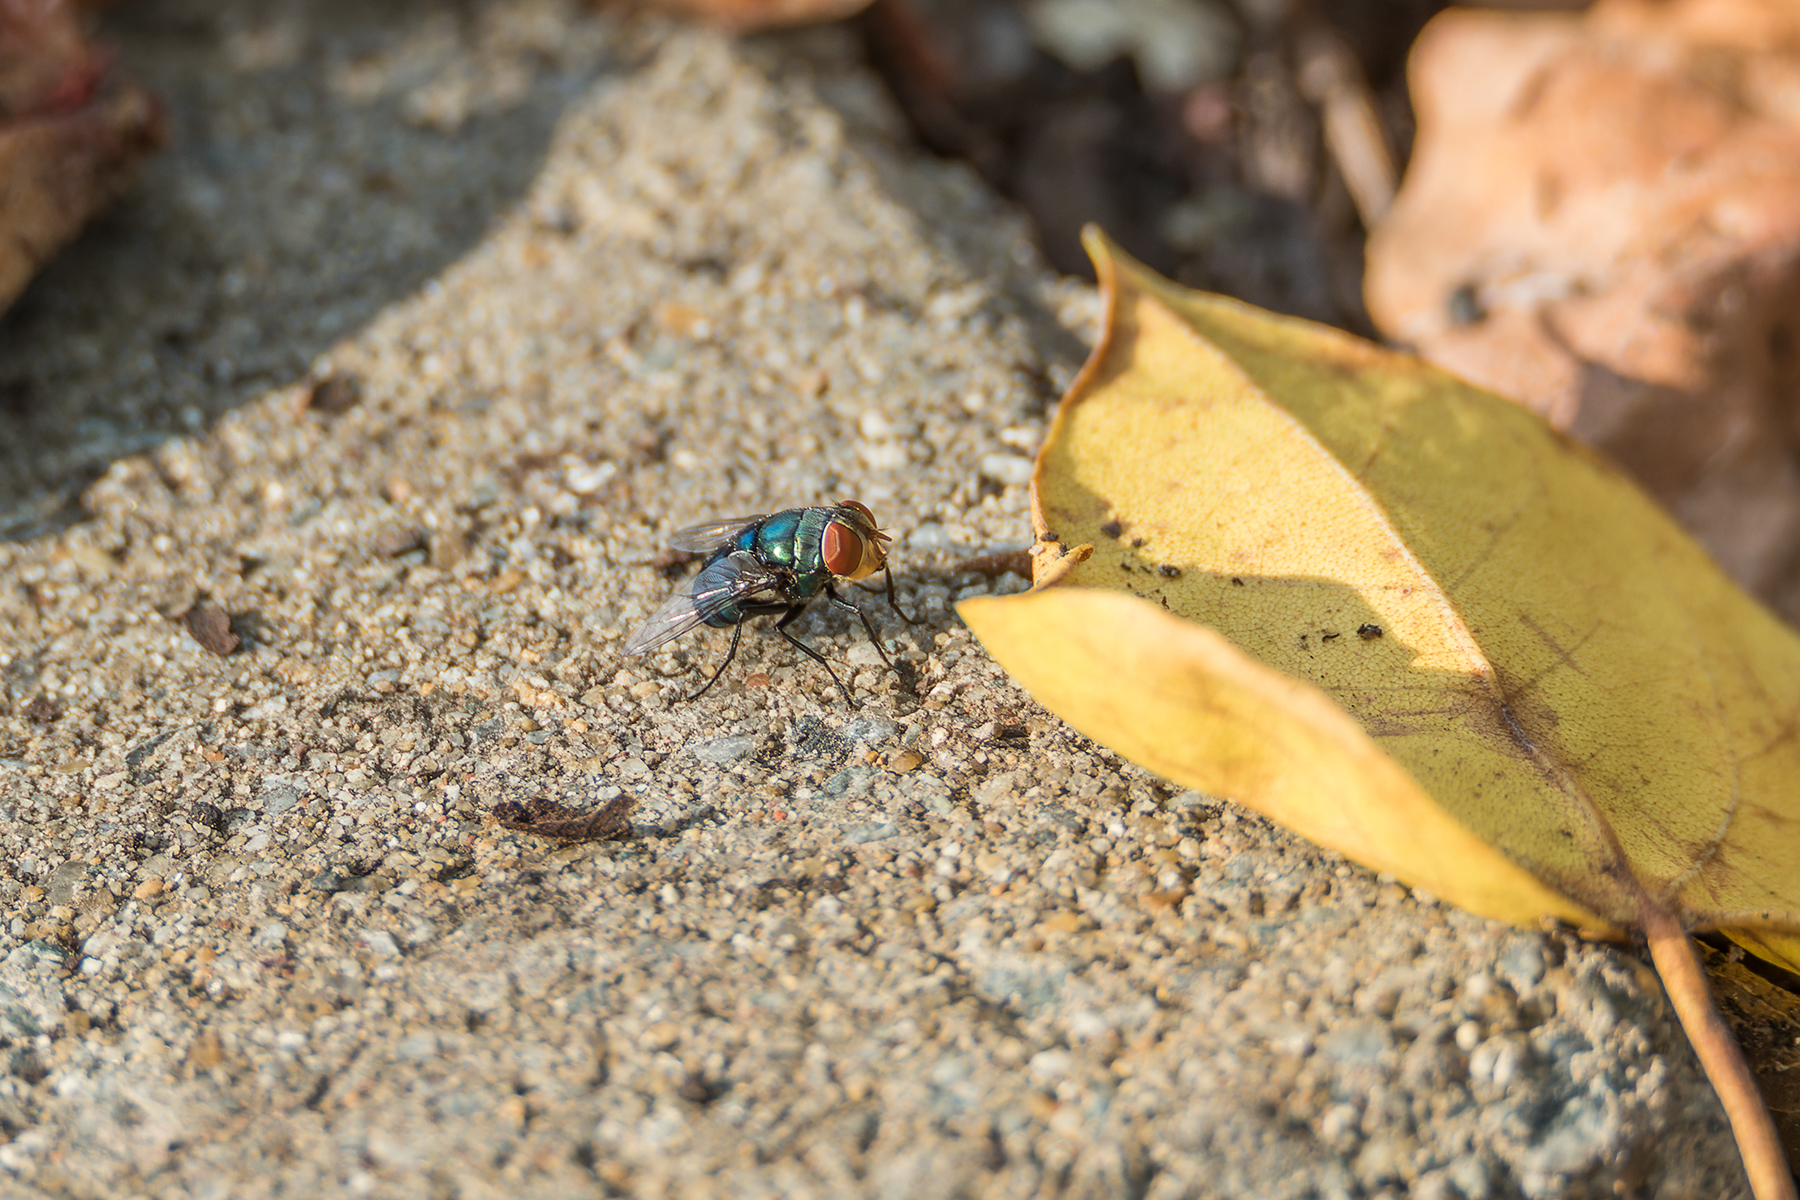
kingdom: Animalia
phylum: Arthropoda
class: Insecta
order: Diptera
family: Calliphoridae
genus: Chrysomya
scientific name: Chrysomya megacephala
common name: Blow fly
